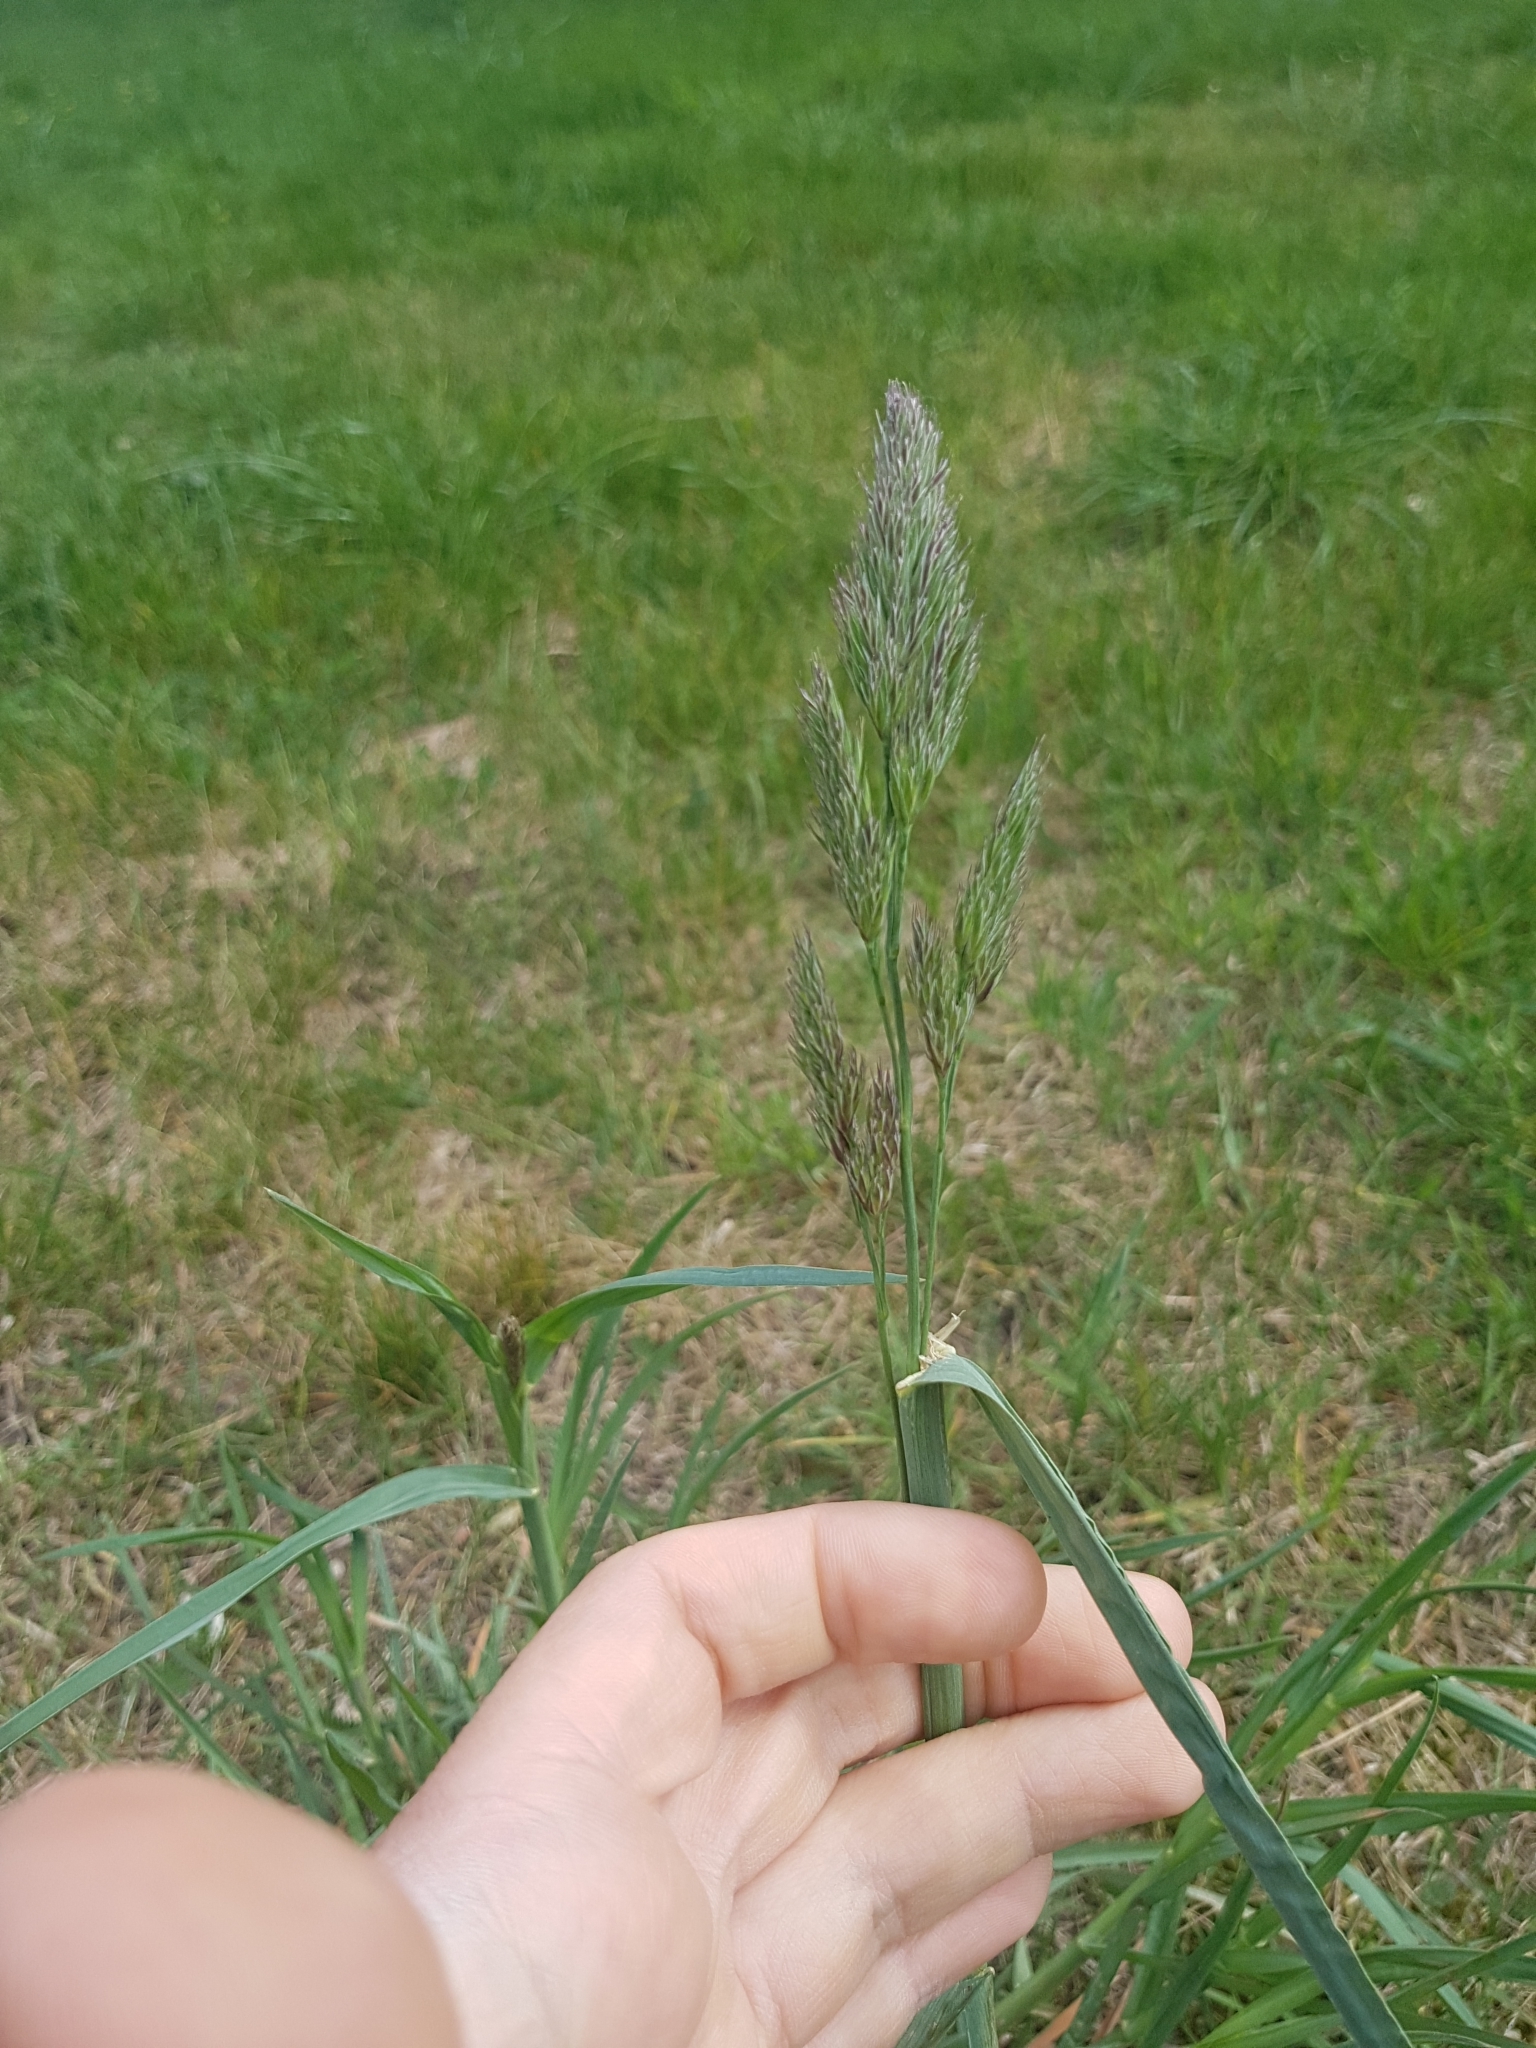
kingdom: Plantae
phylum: Tracheophyta
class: Liliopsida
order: Poales
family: Poaceae
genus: Dactylis
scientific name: Dactylis glomerata
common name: Orchardgrass
